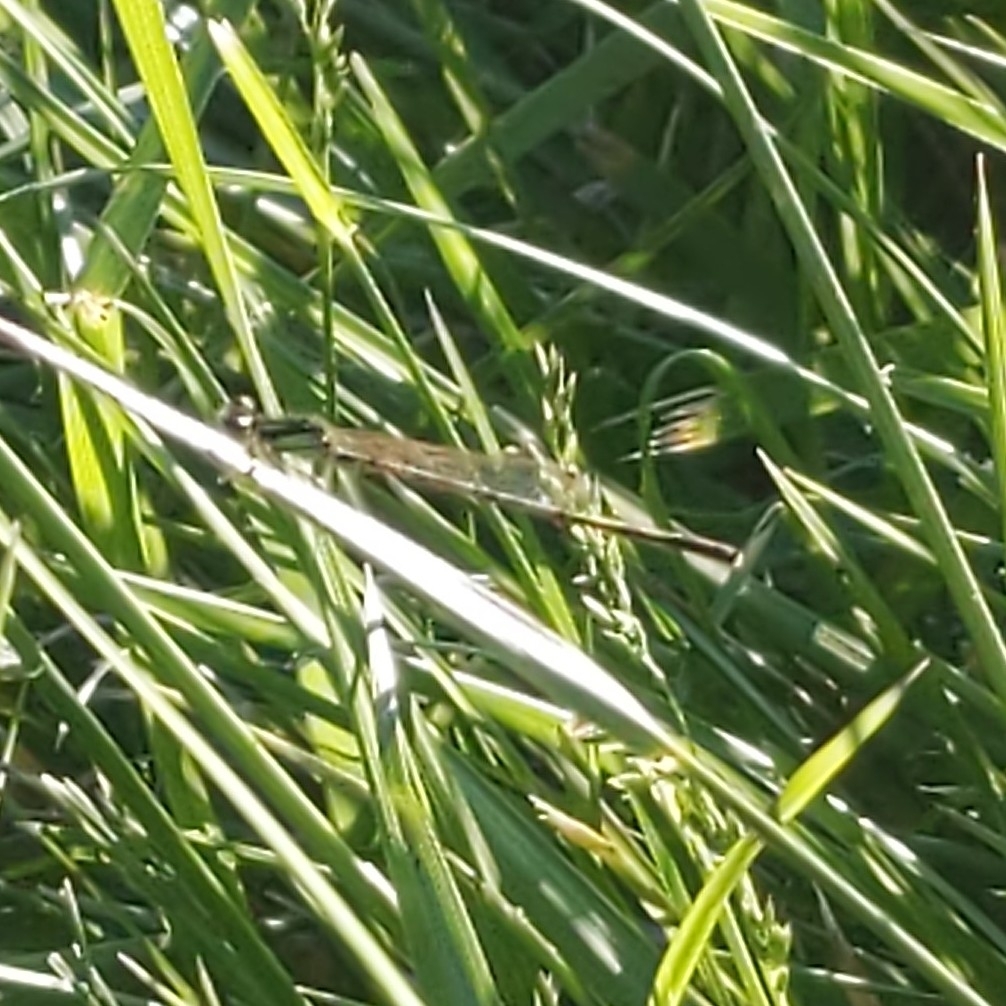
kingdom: Animalia
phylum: Arthropoda
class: Insecta
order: Odonata
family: Coenagrionidae
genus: Ischnura
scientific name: Ischnura posita
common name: Fragile forktail
